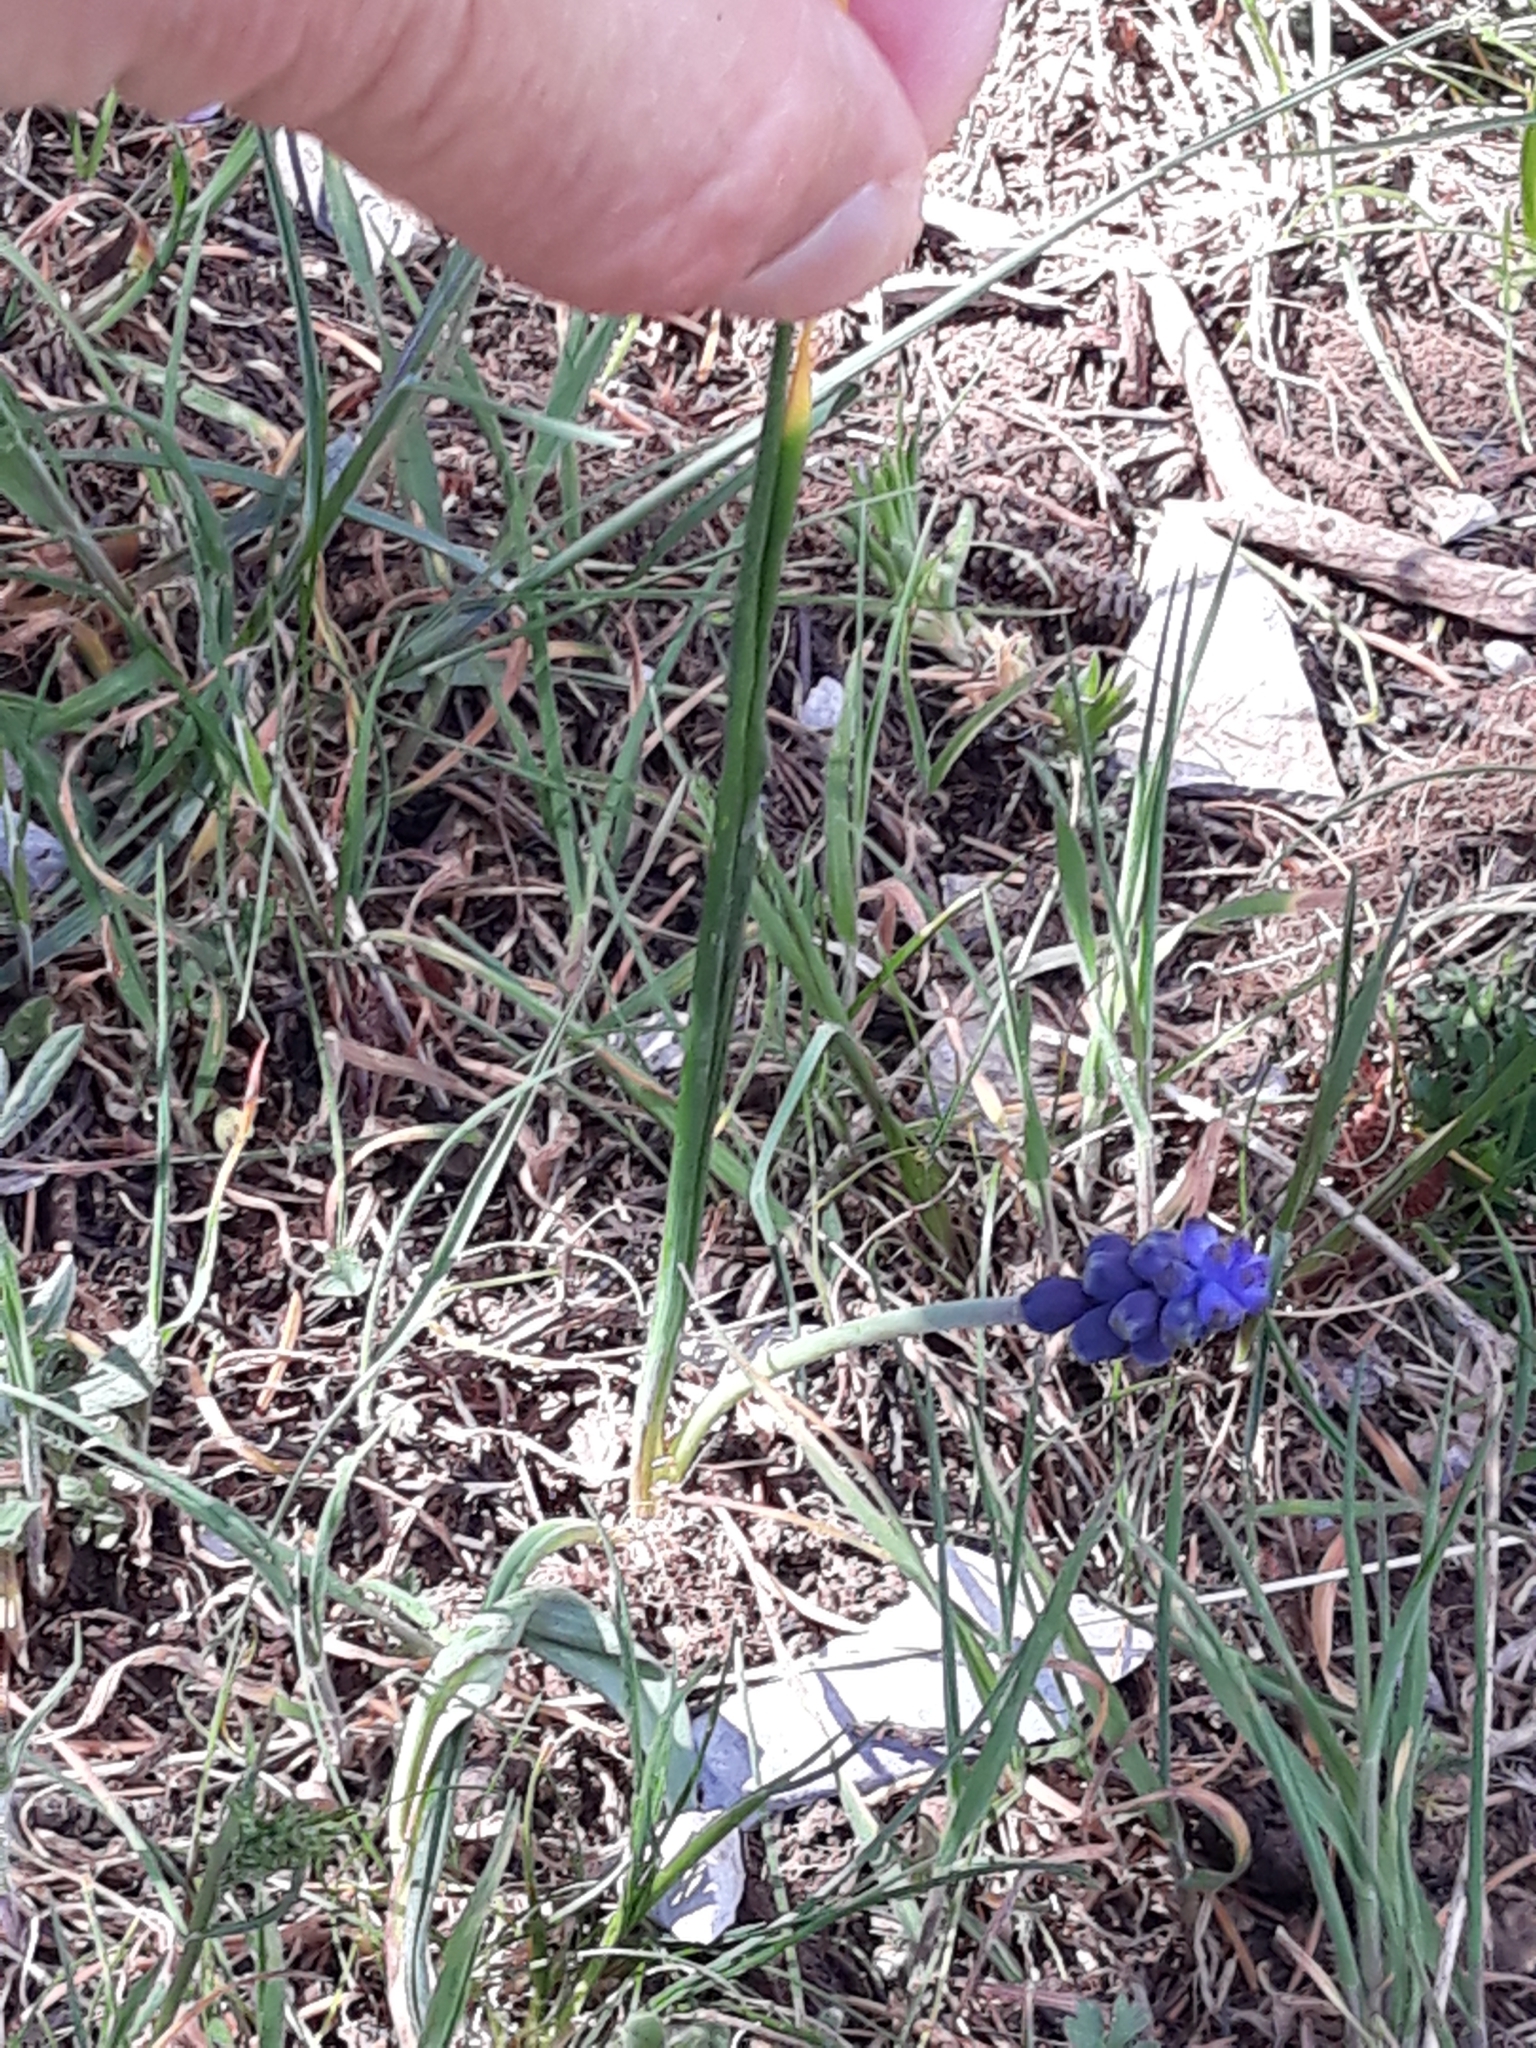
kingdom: Plantae
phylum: Tracheophyta
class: Liliopsida
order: Asparagales
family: Asparagaceae
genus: Muscari
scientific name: Muscari neglectum
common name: Grape-hyacinth
